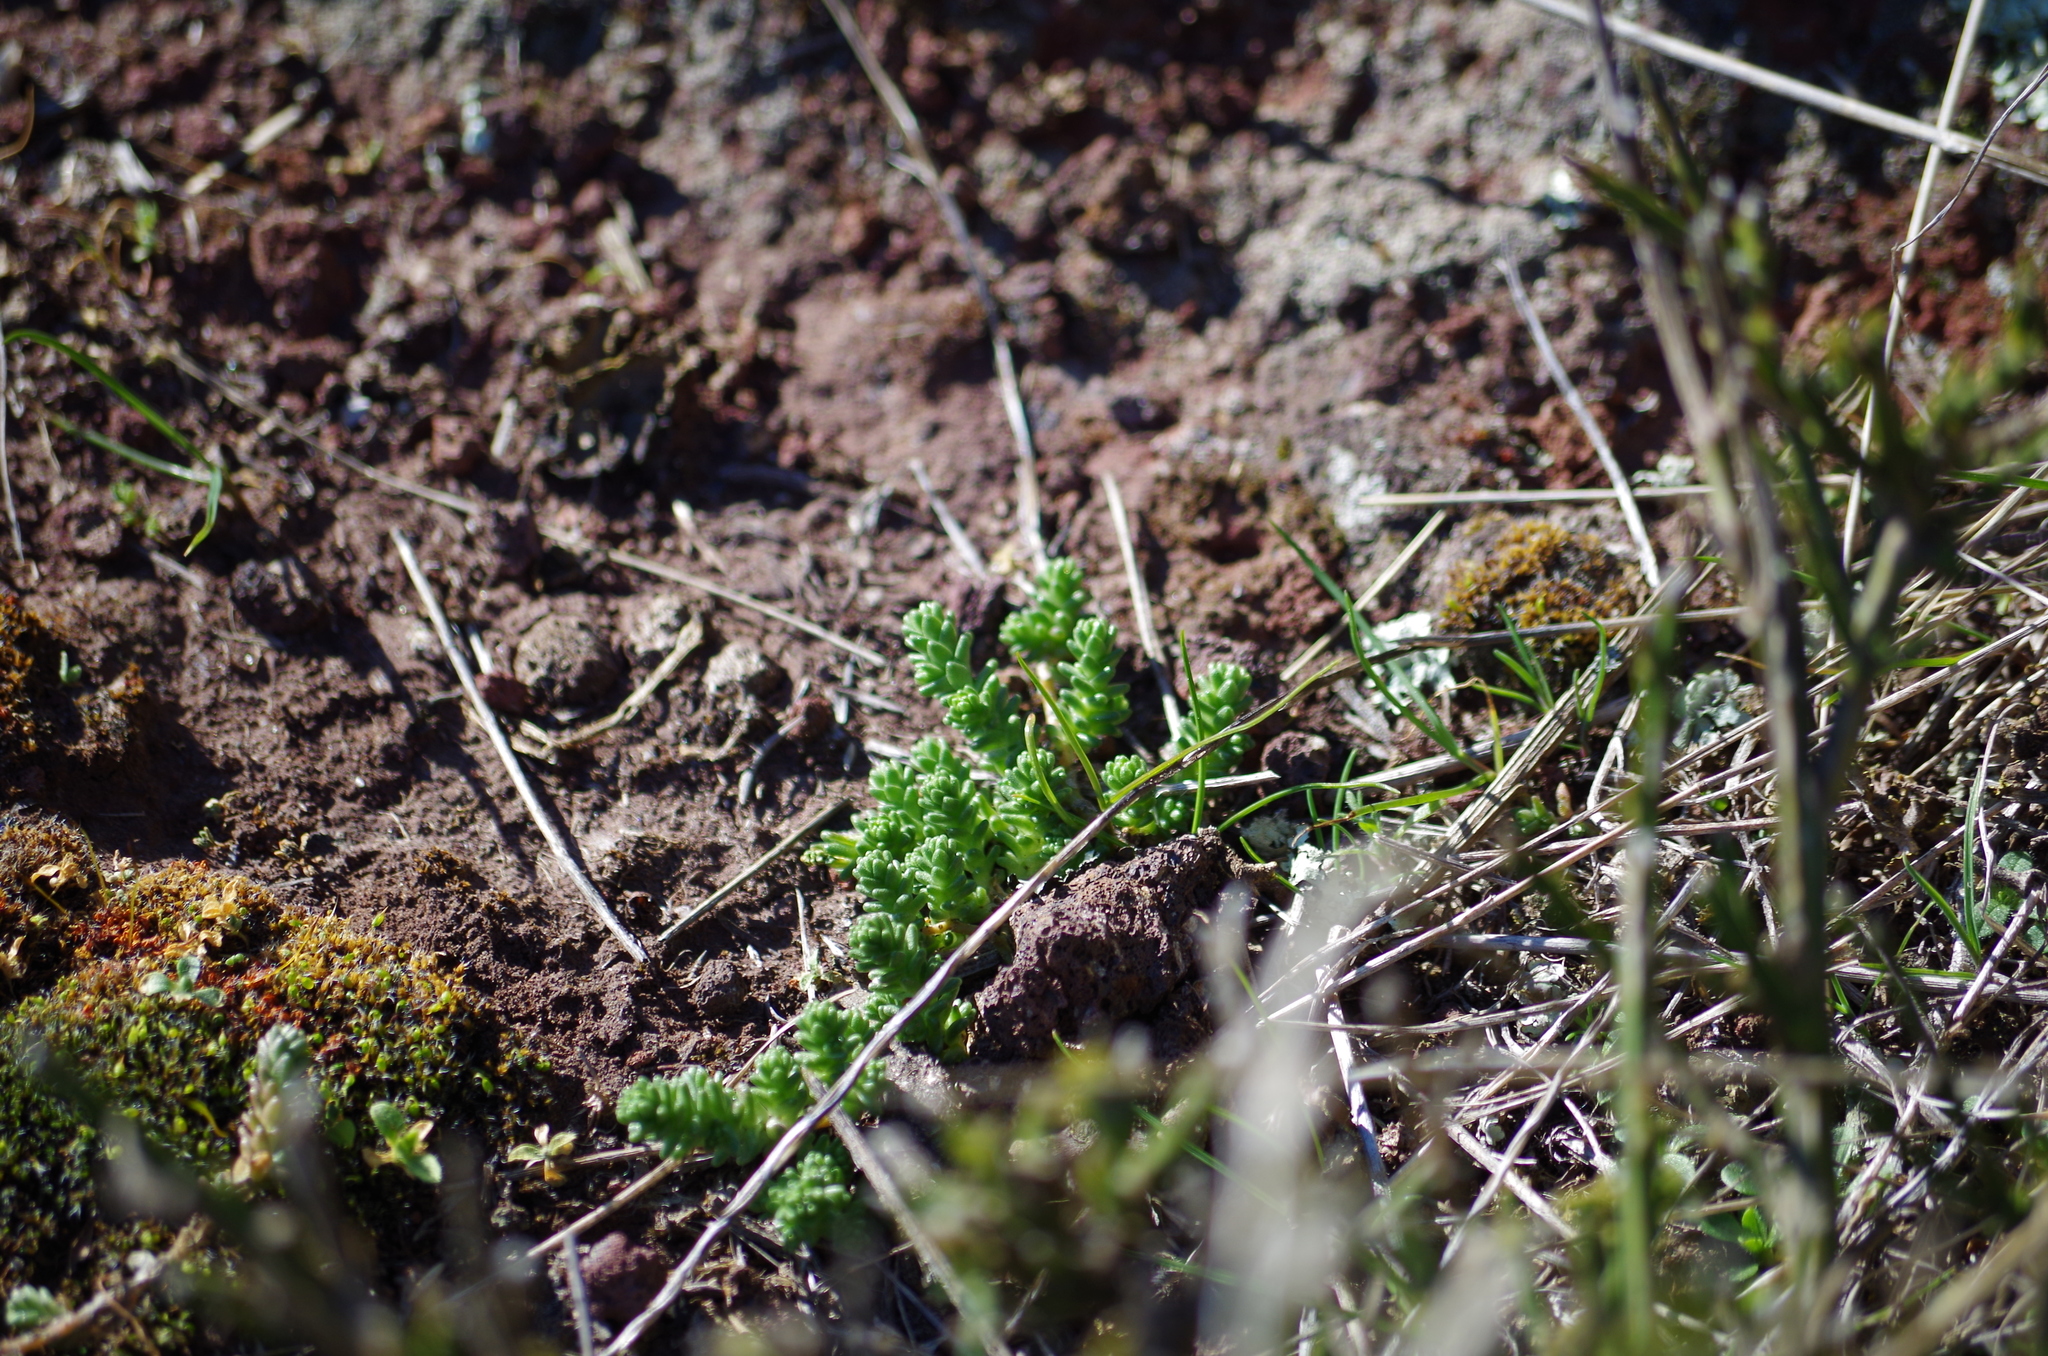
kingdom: Plantae
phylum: Tracheophyta
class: Magnoliopsida
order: Saxifragales
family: Crassulaceae
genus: Sedum
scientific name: Sedum acre
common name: Biting stonecrop
